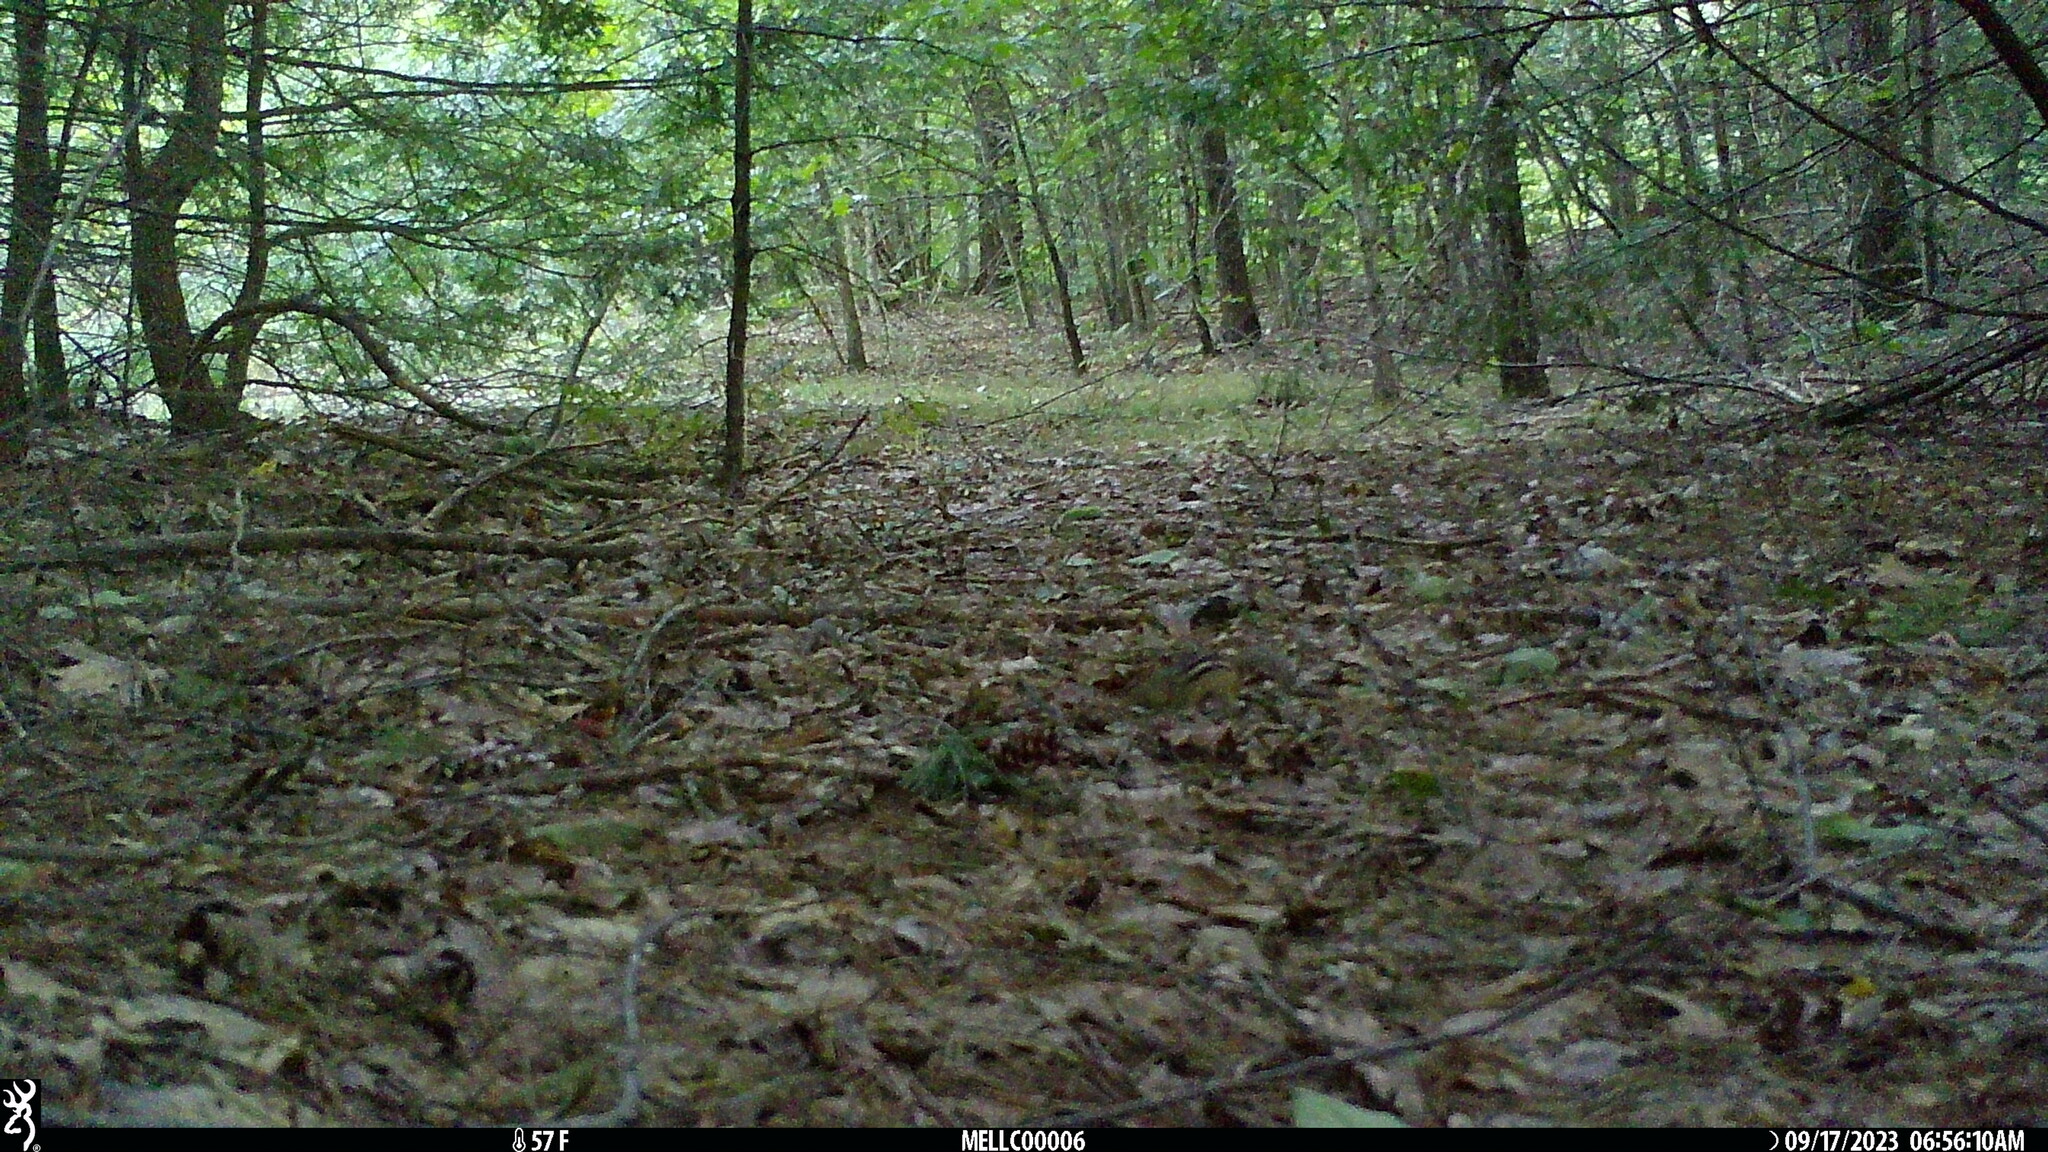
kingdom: Animalia
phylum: Chordata
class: Mammalia
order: Rodentia
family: Sciuridae
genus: Tamias
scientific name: Tamias striatus
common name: Eastern chipmunk
